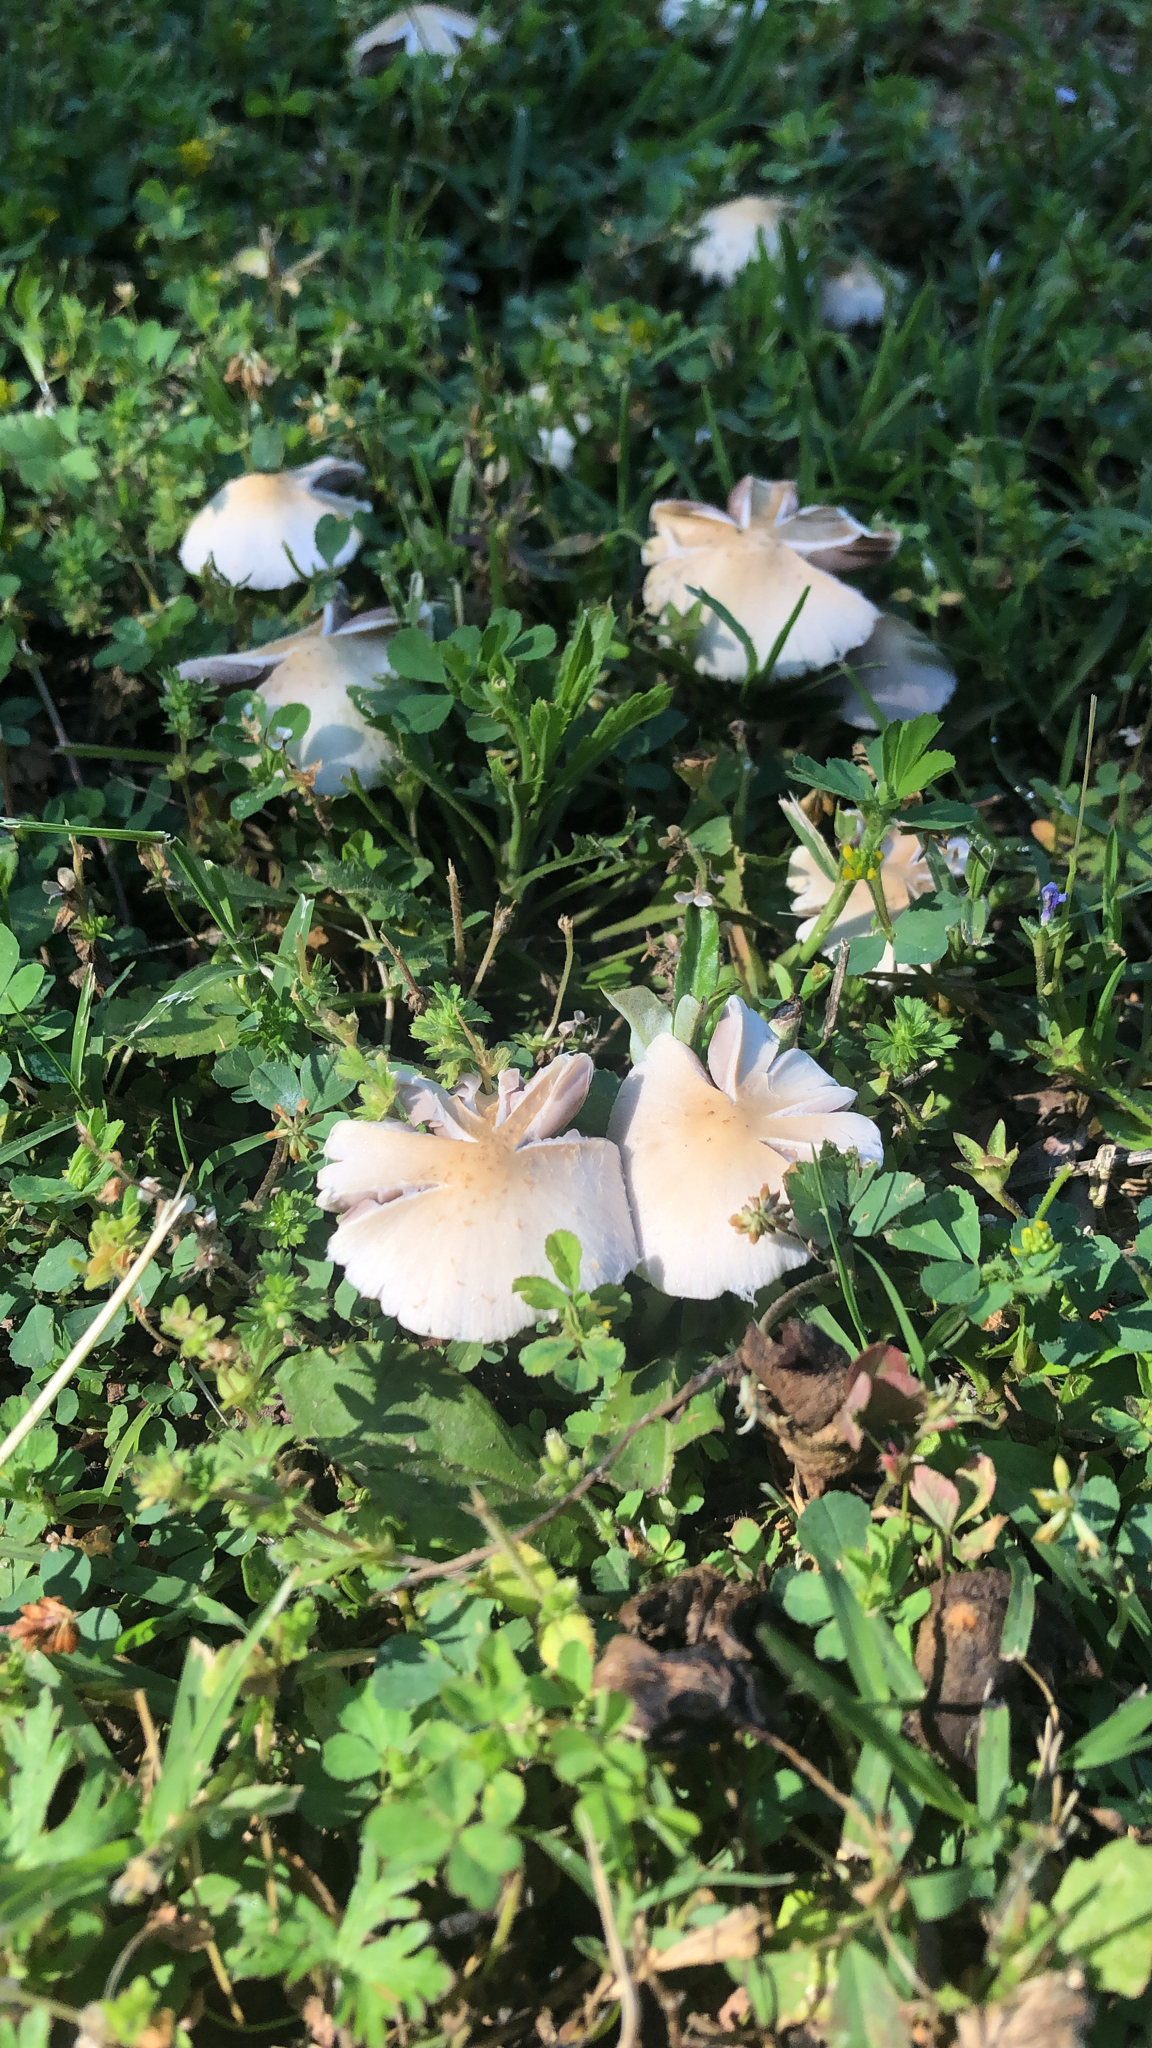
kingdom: Fungi
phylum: Basidiomycota
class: Agaricomycetes
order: Agaricales
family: Psathyrellaceae
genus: Candolleomyces
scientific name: Candolleomyces candolleanus
